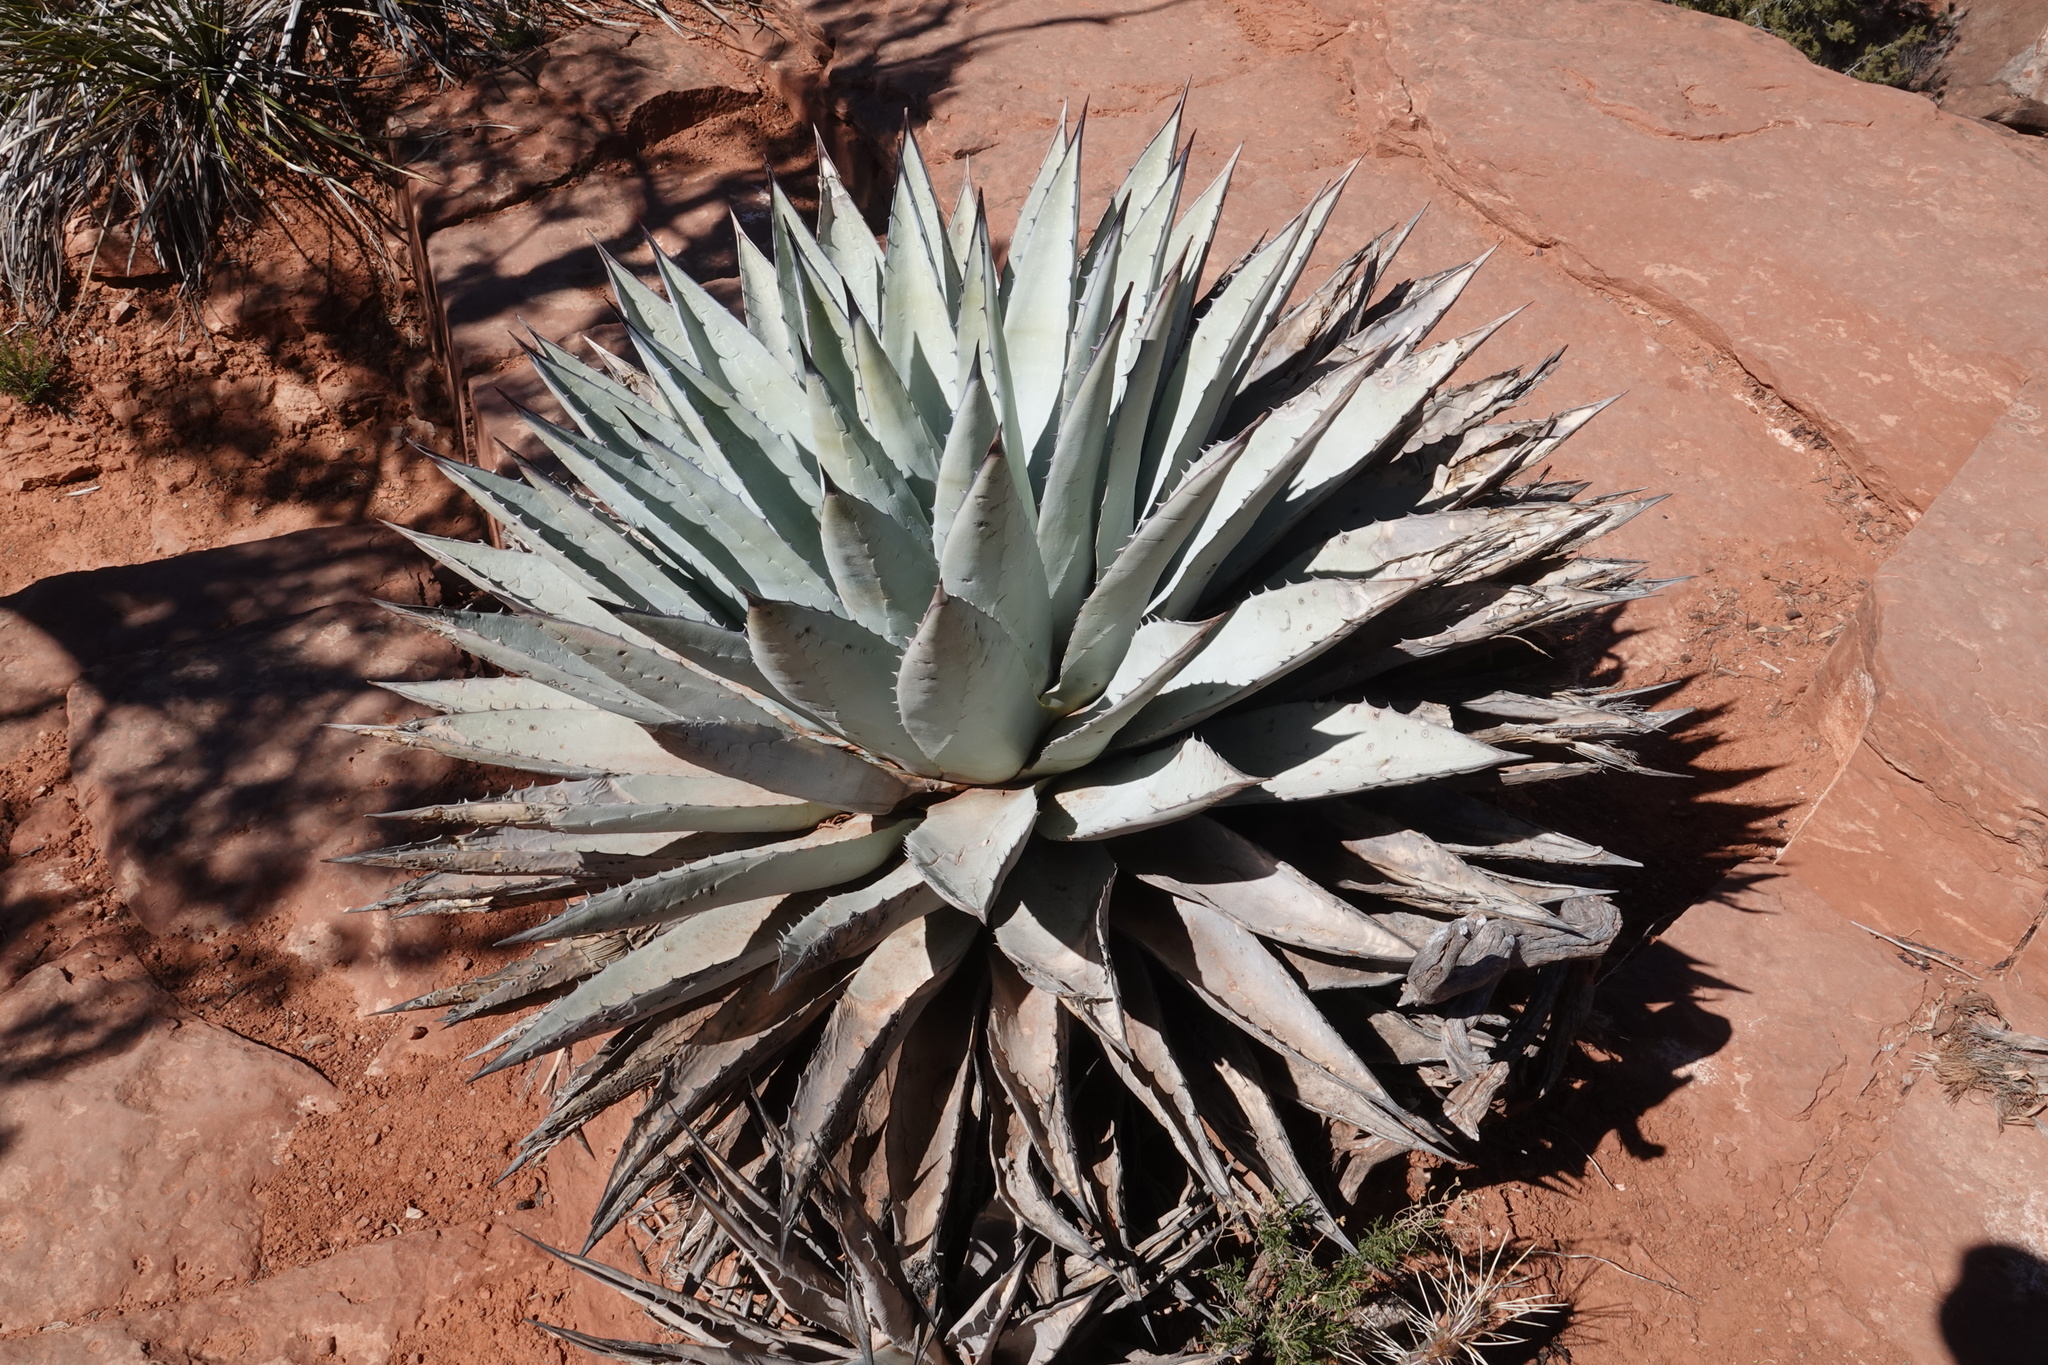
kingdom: Plantae
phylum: Tracheophyta
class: Liliopsida
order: Asparagales
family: Asparagaceae
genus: Agave
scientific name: Agave parryi
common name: Parry's agave
